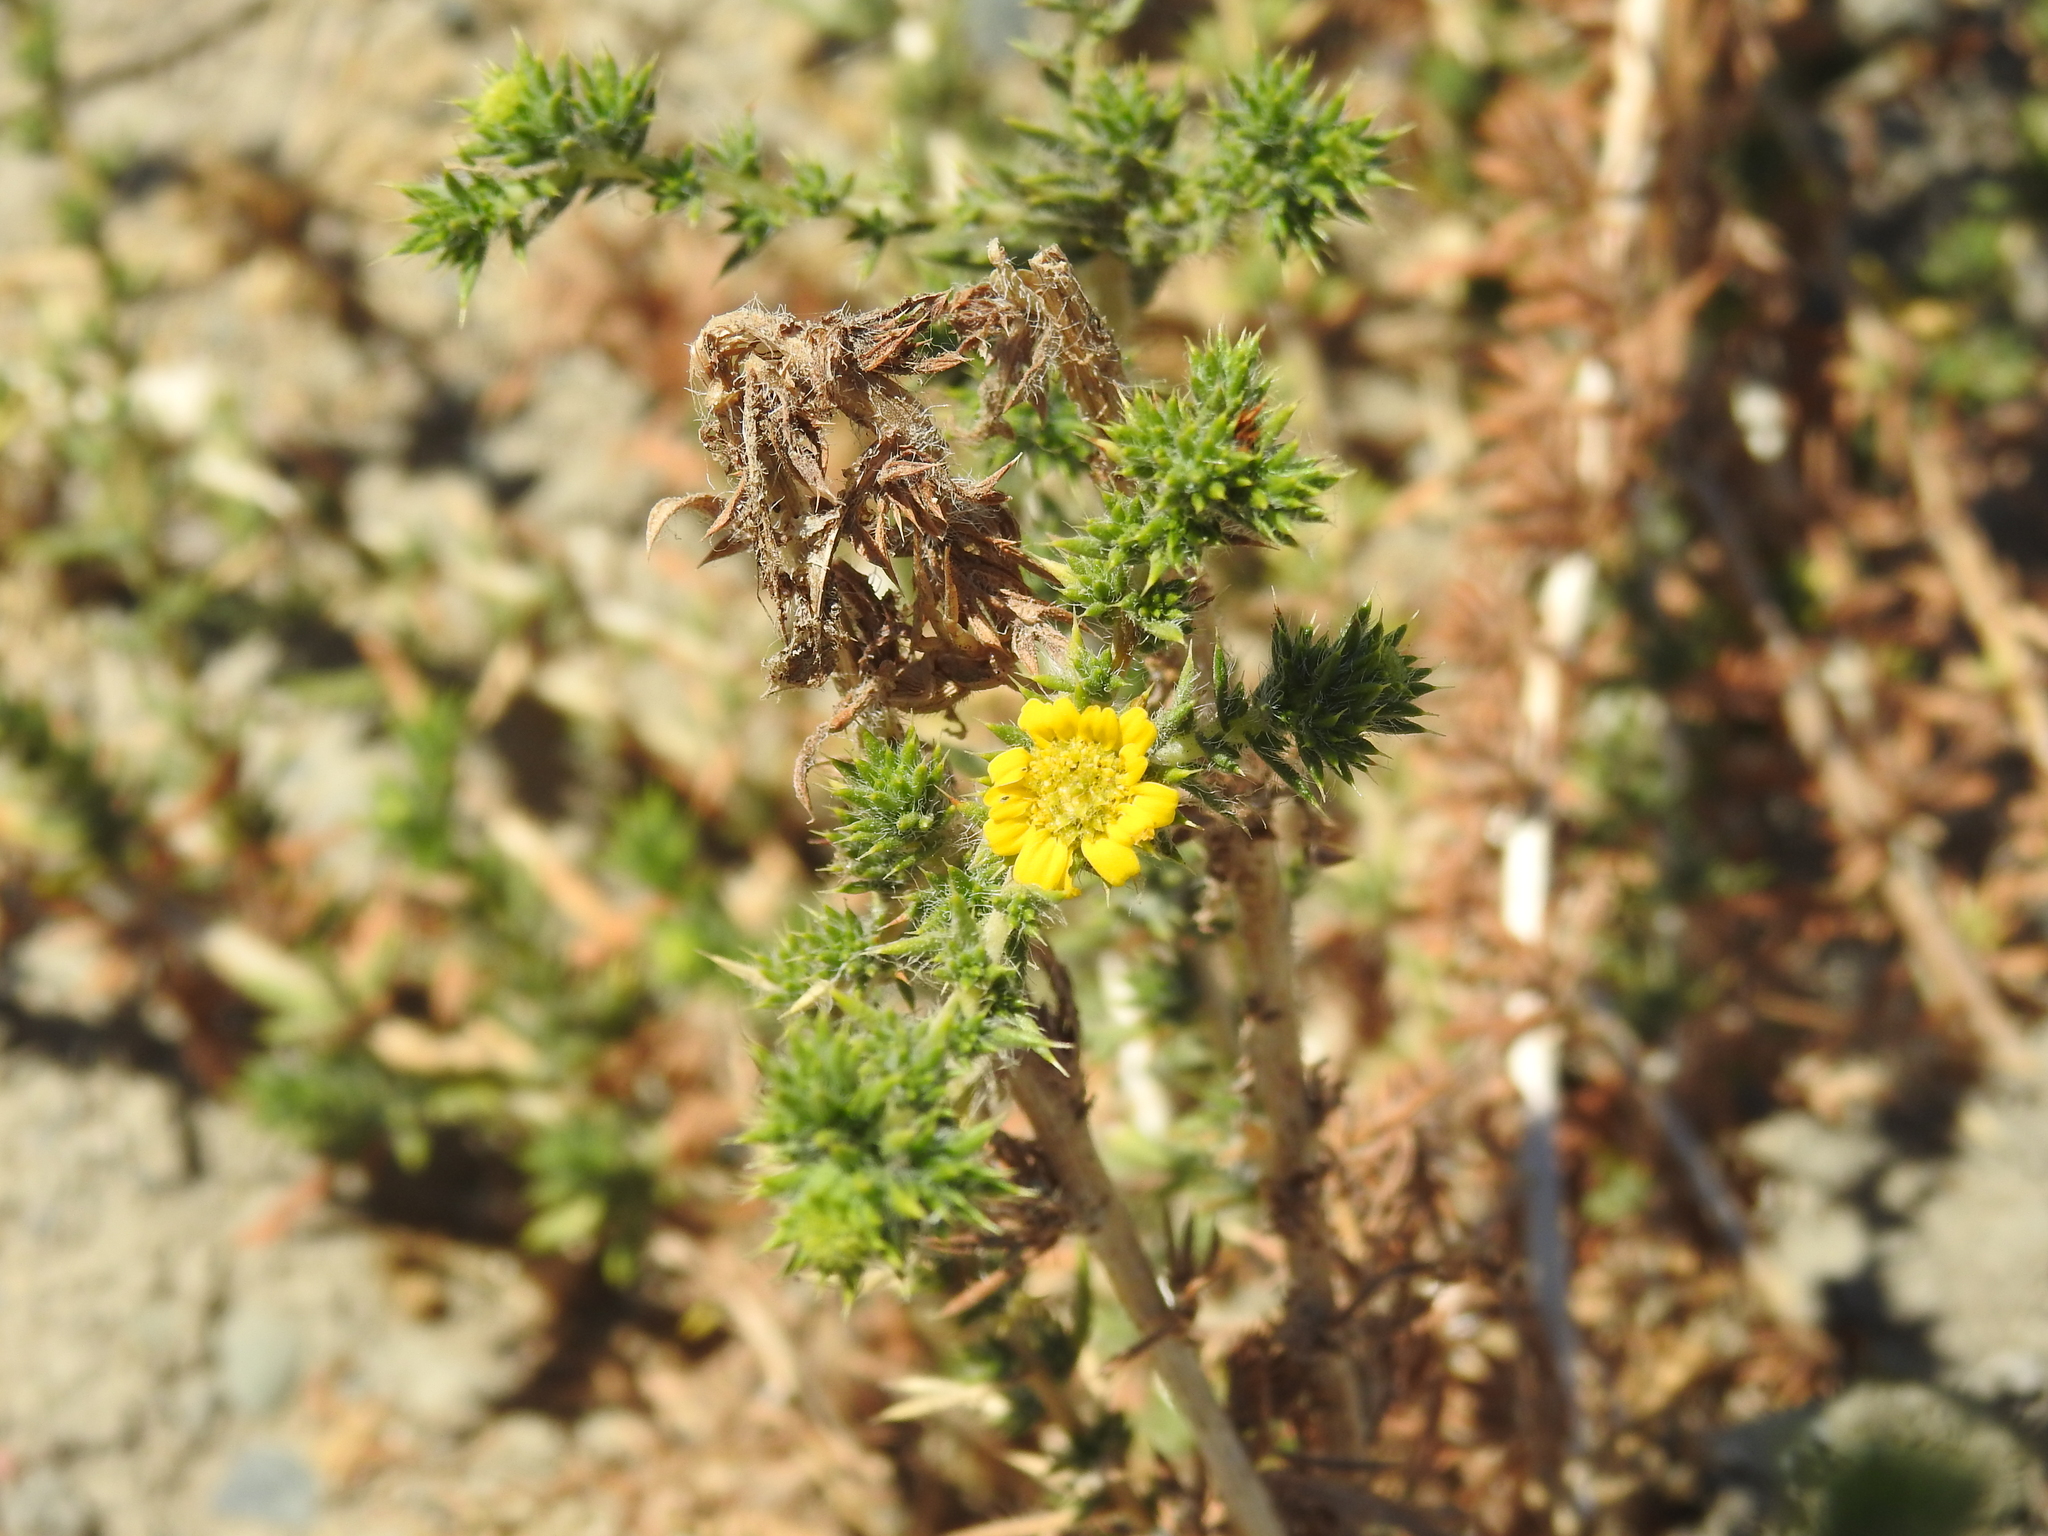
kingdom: Plantae
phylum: Tracheophyta
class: Magnoliopsida
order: Asterales
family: Asteraceae
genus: Centromadia
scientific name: Centromadia pungens
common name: Common spikeweed
